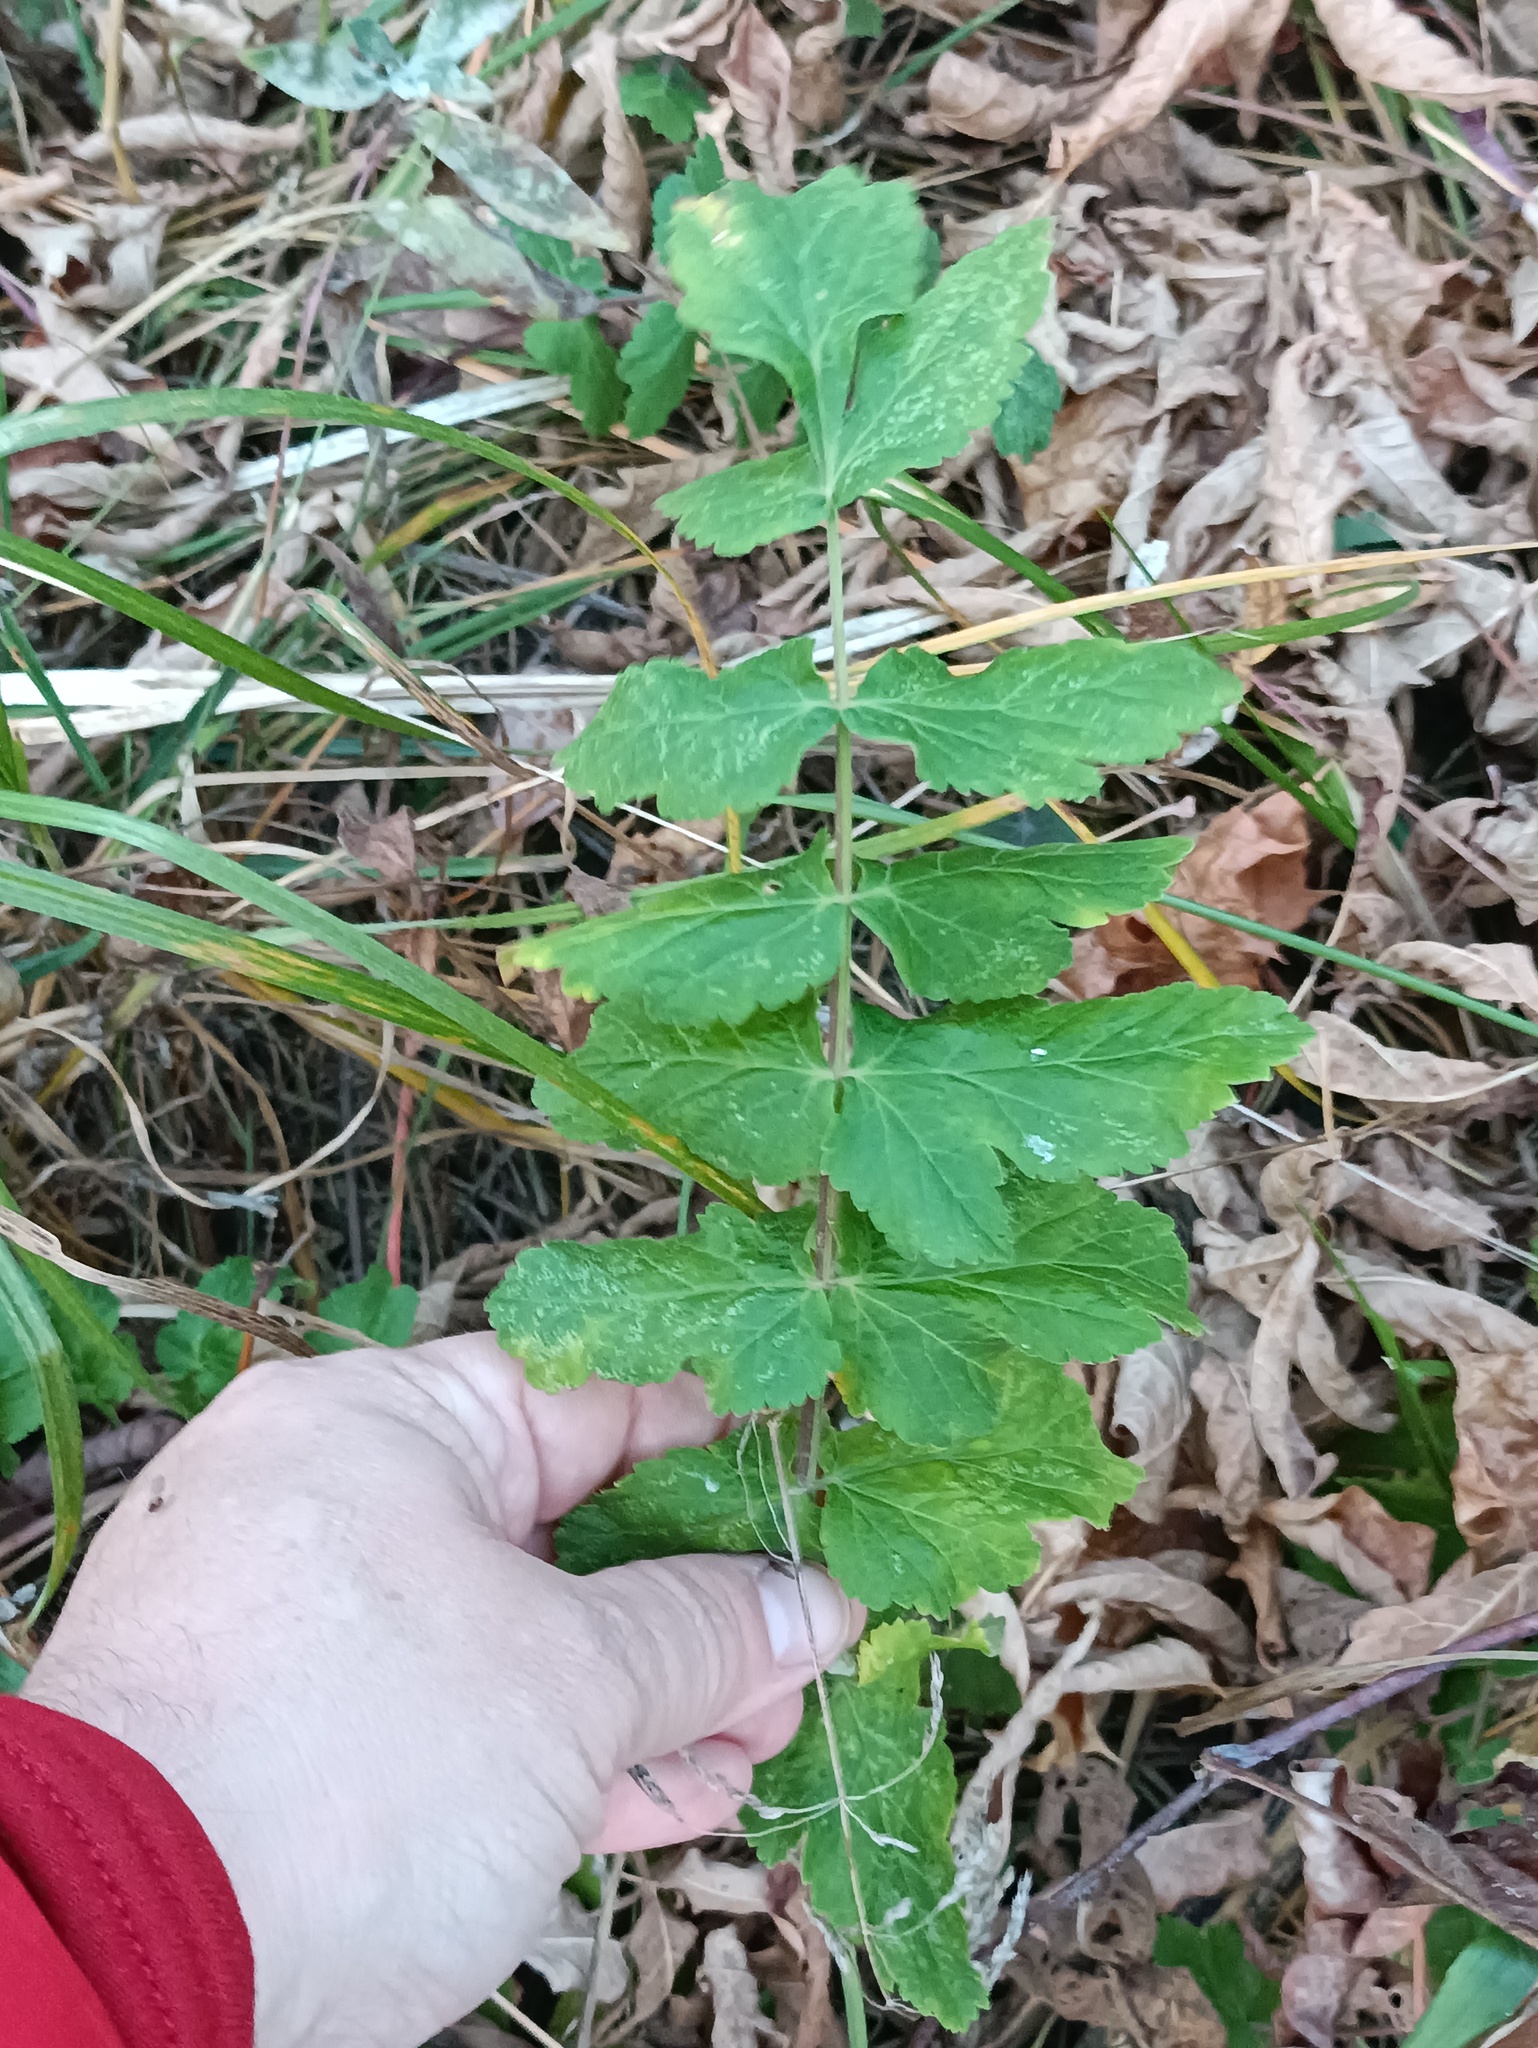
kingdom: Plantae
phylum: Tracheophyta
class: Magnoliopsida
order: Apiales
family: Apiaceae
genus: Pastinaca
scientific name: Pastinaca sativa
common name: Wild parsnip
